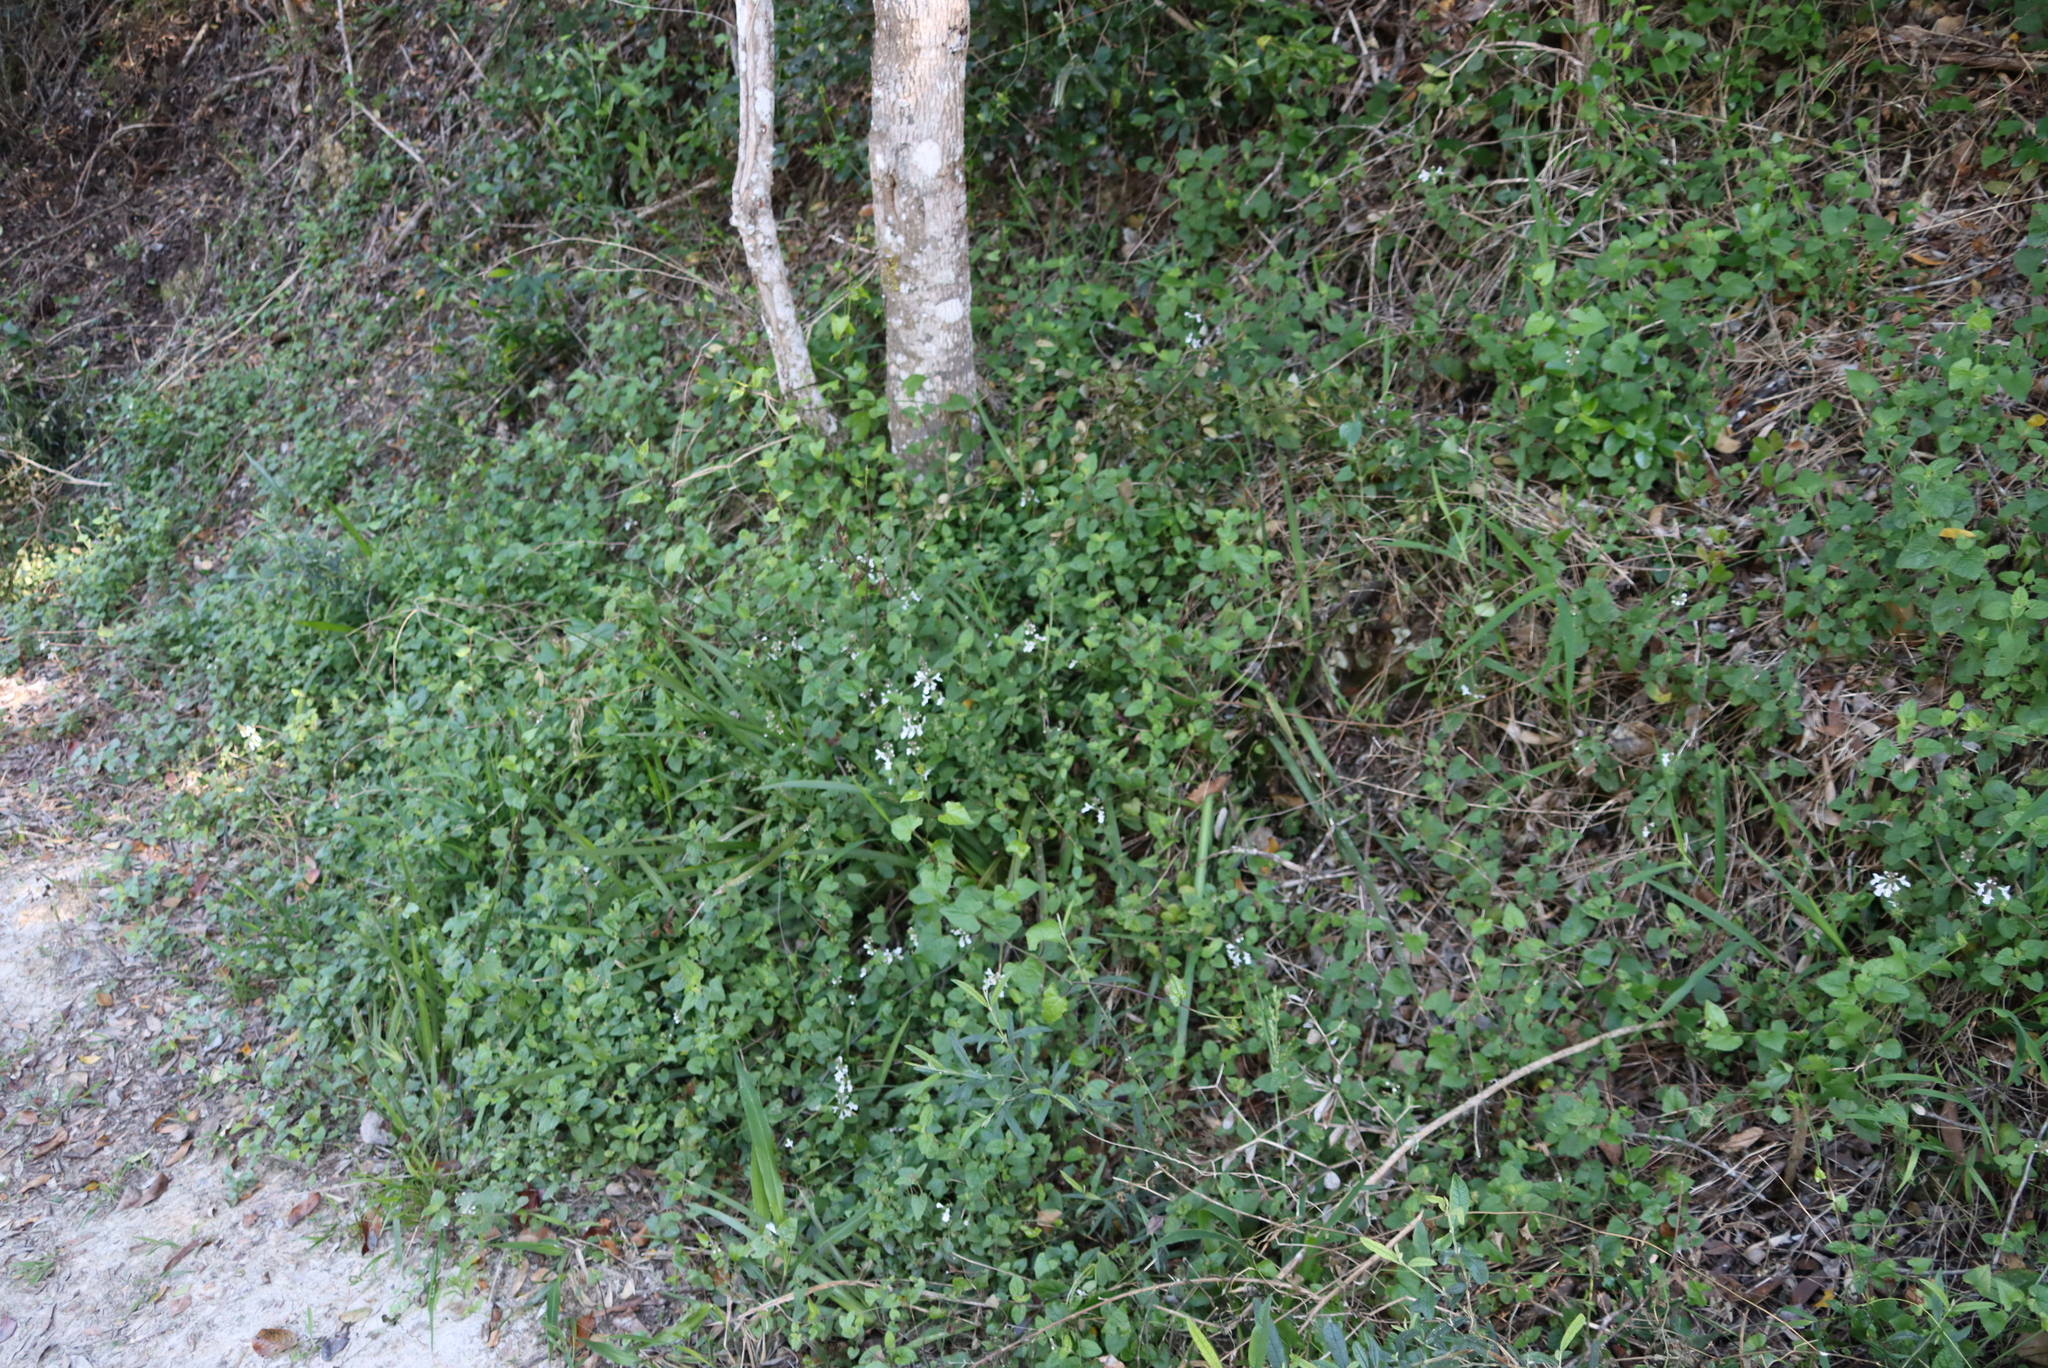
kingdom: Plantae
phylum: Tracheophyta
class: Magnoliopsida
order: Lamiales
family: Lamiaceae
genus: Stachys
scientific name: Stachys aethiopica
